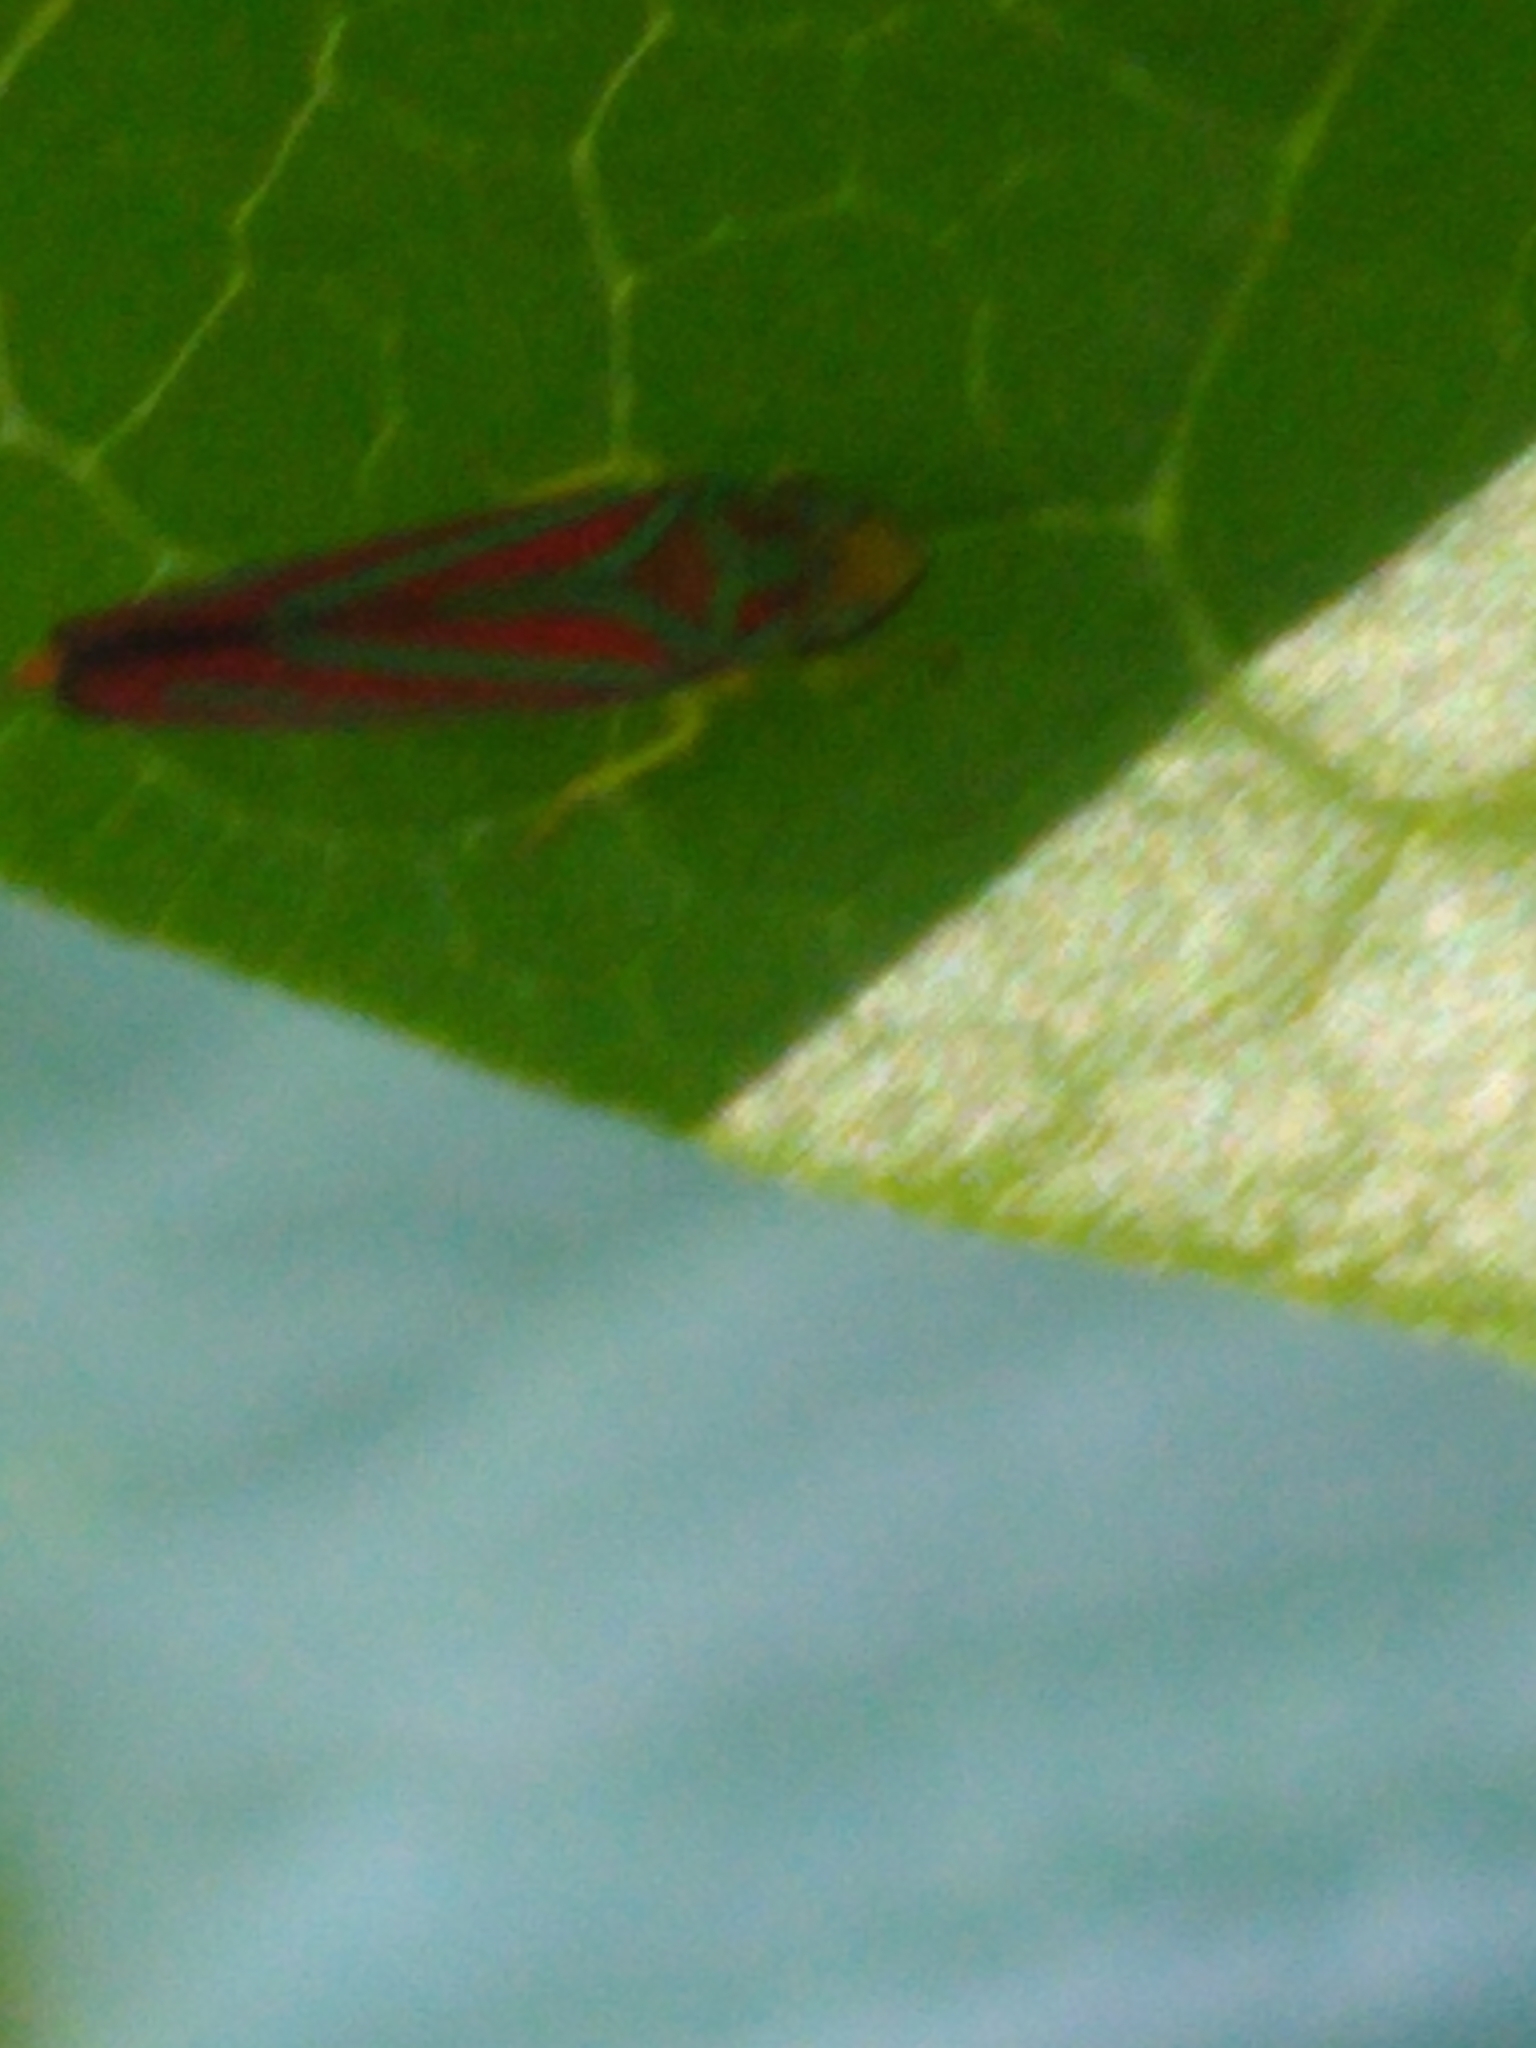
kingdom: Animalia
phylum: Arthropoda
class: Insecta
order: Hemiptera
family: Cicadellidae
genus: Graphocephala
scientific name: Graphocephala coccinea
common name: Candy-striped leafhopper
